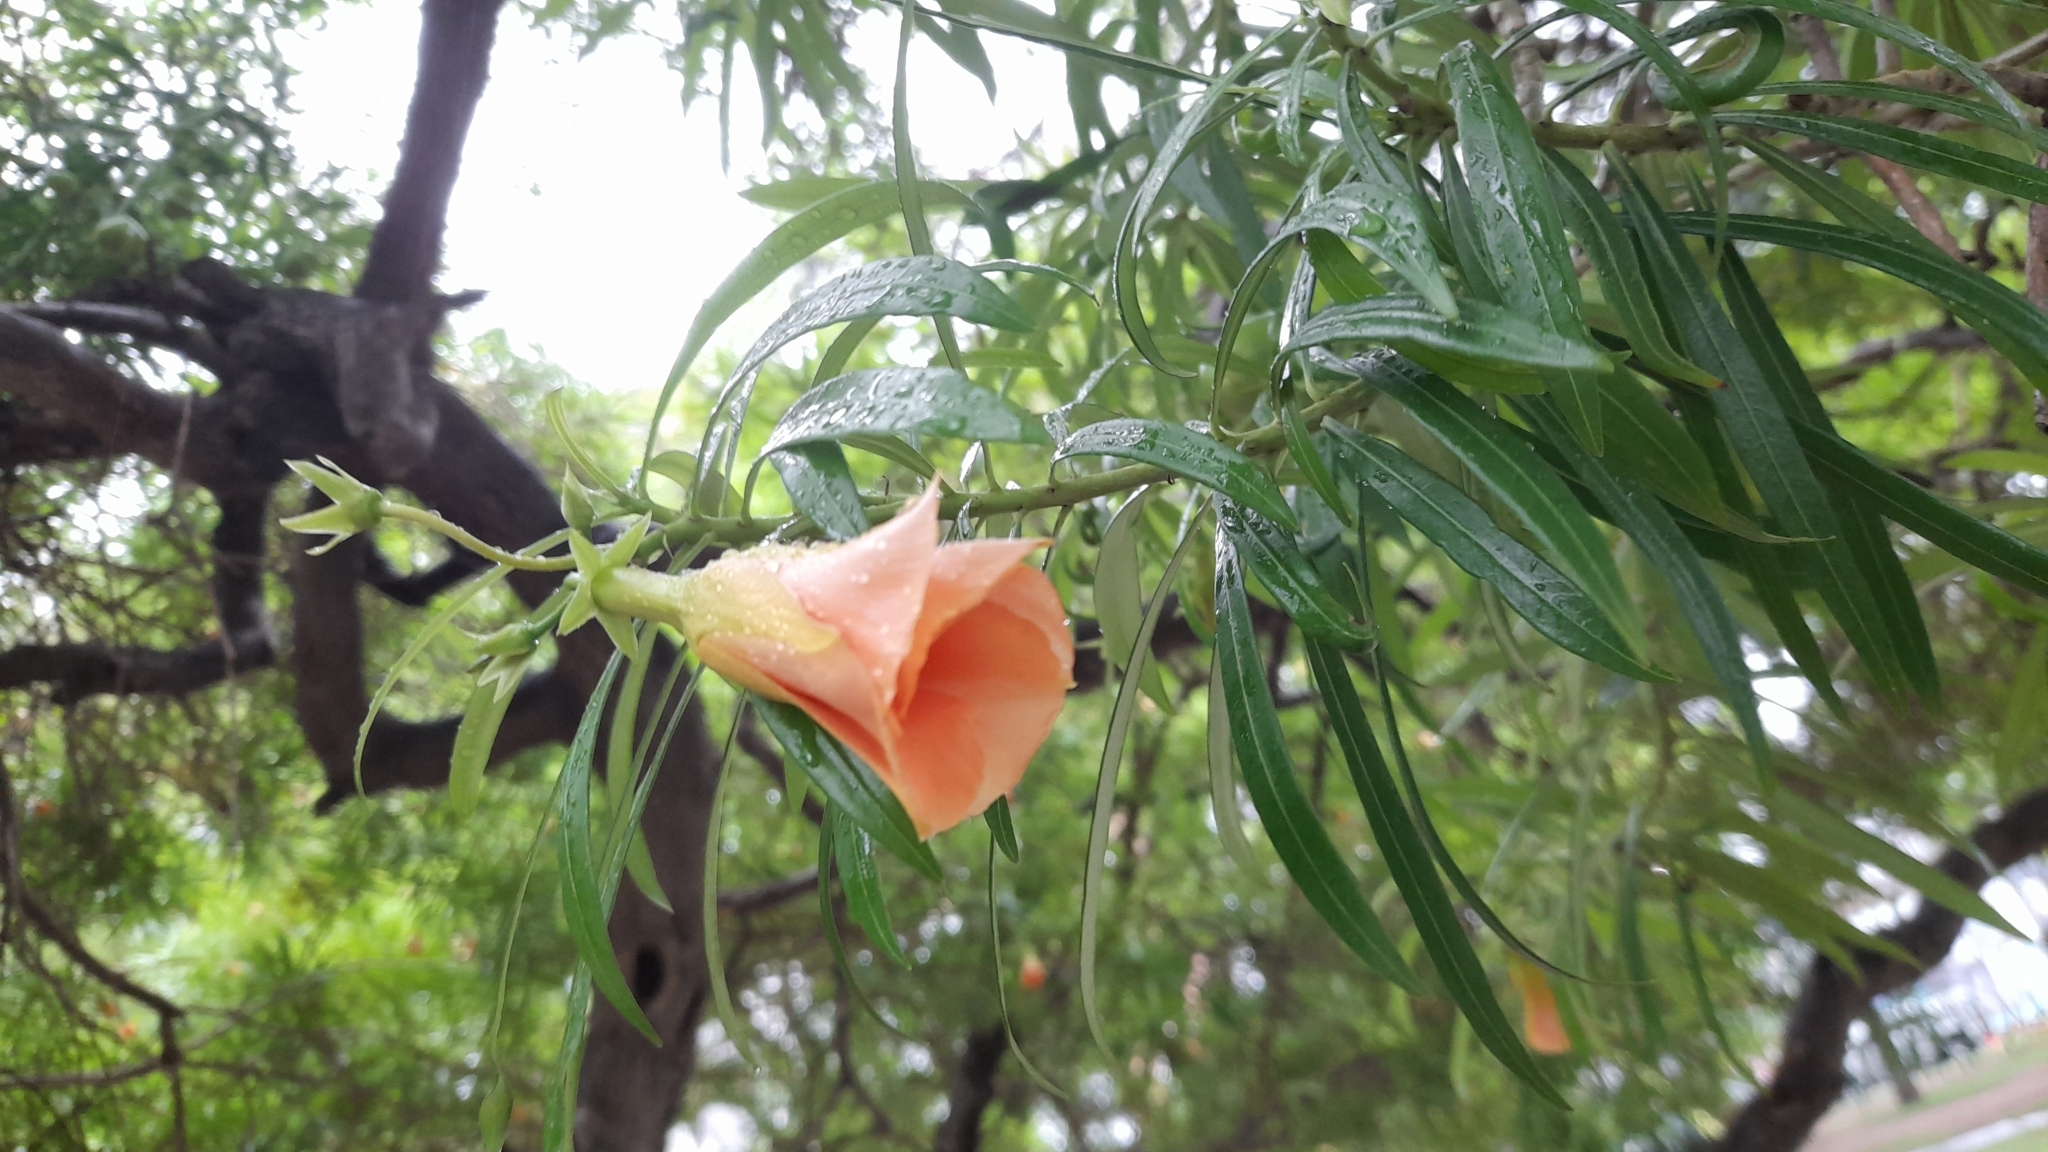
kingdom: Plantae
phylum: Tracheophyta
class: Magnoliopsida
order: Gentianales
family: Apocynaceae
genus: Cascabela
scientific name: Cascabela thevetia
